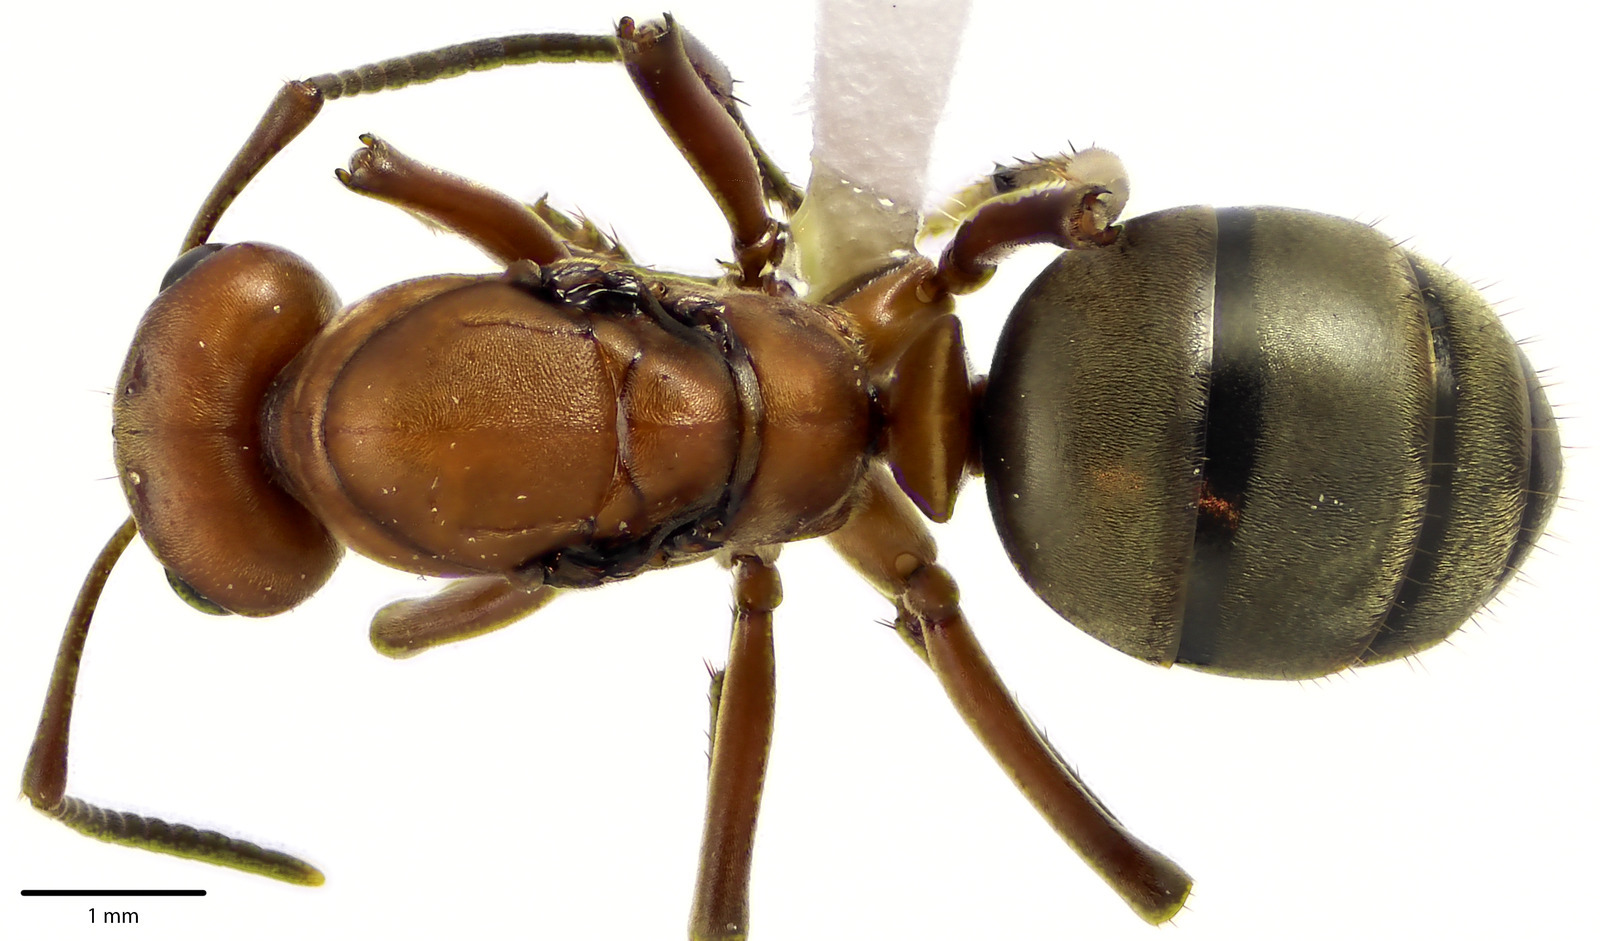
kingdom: Animalia
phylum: Arthropoda
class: Insecta
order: Hymenoptera
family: Formicidae
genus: Formica
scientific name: Formica subintegra
